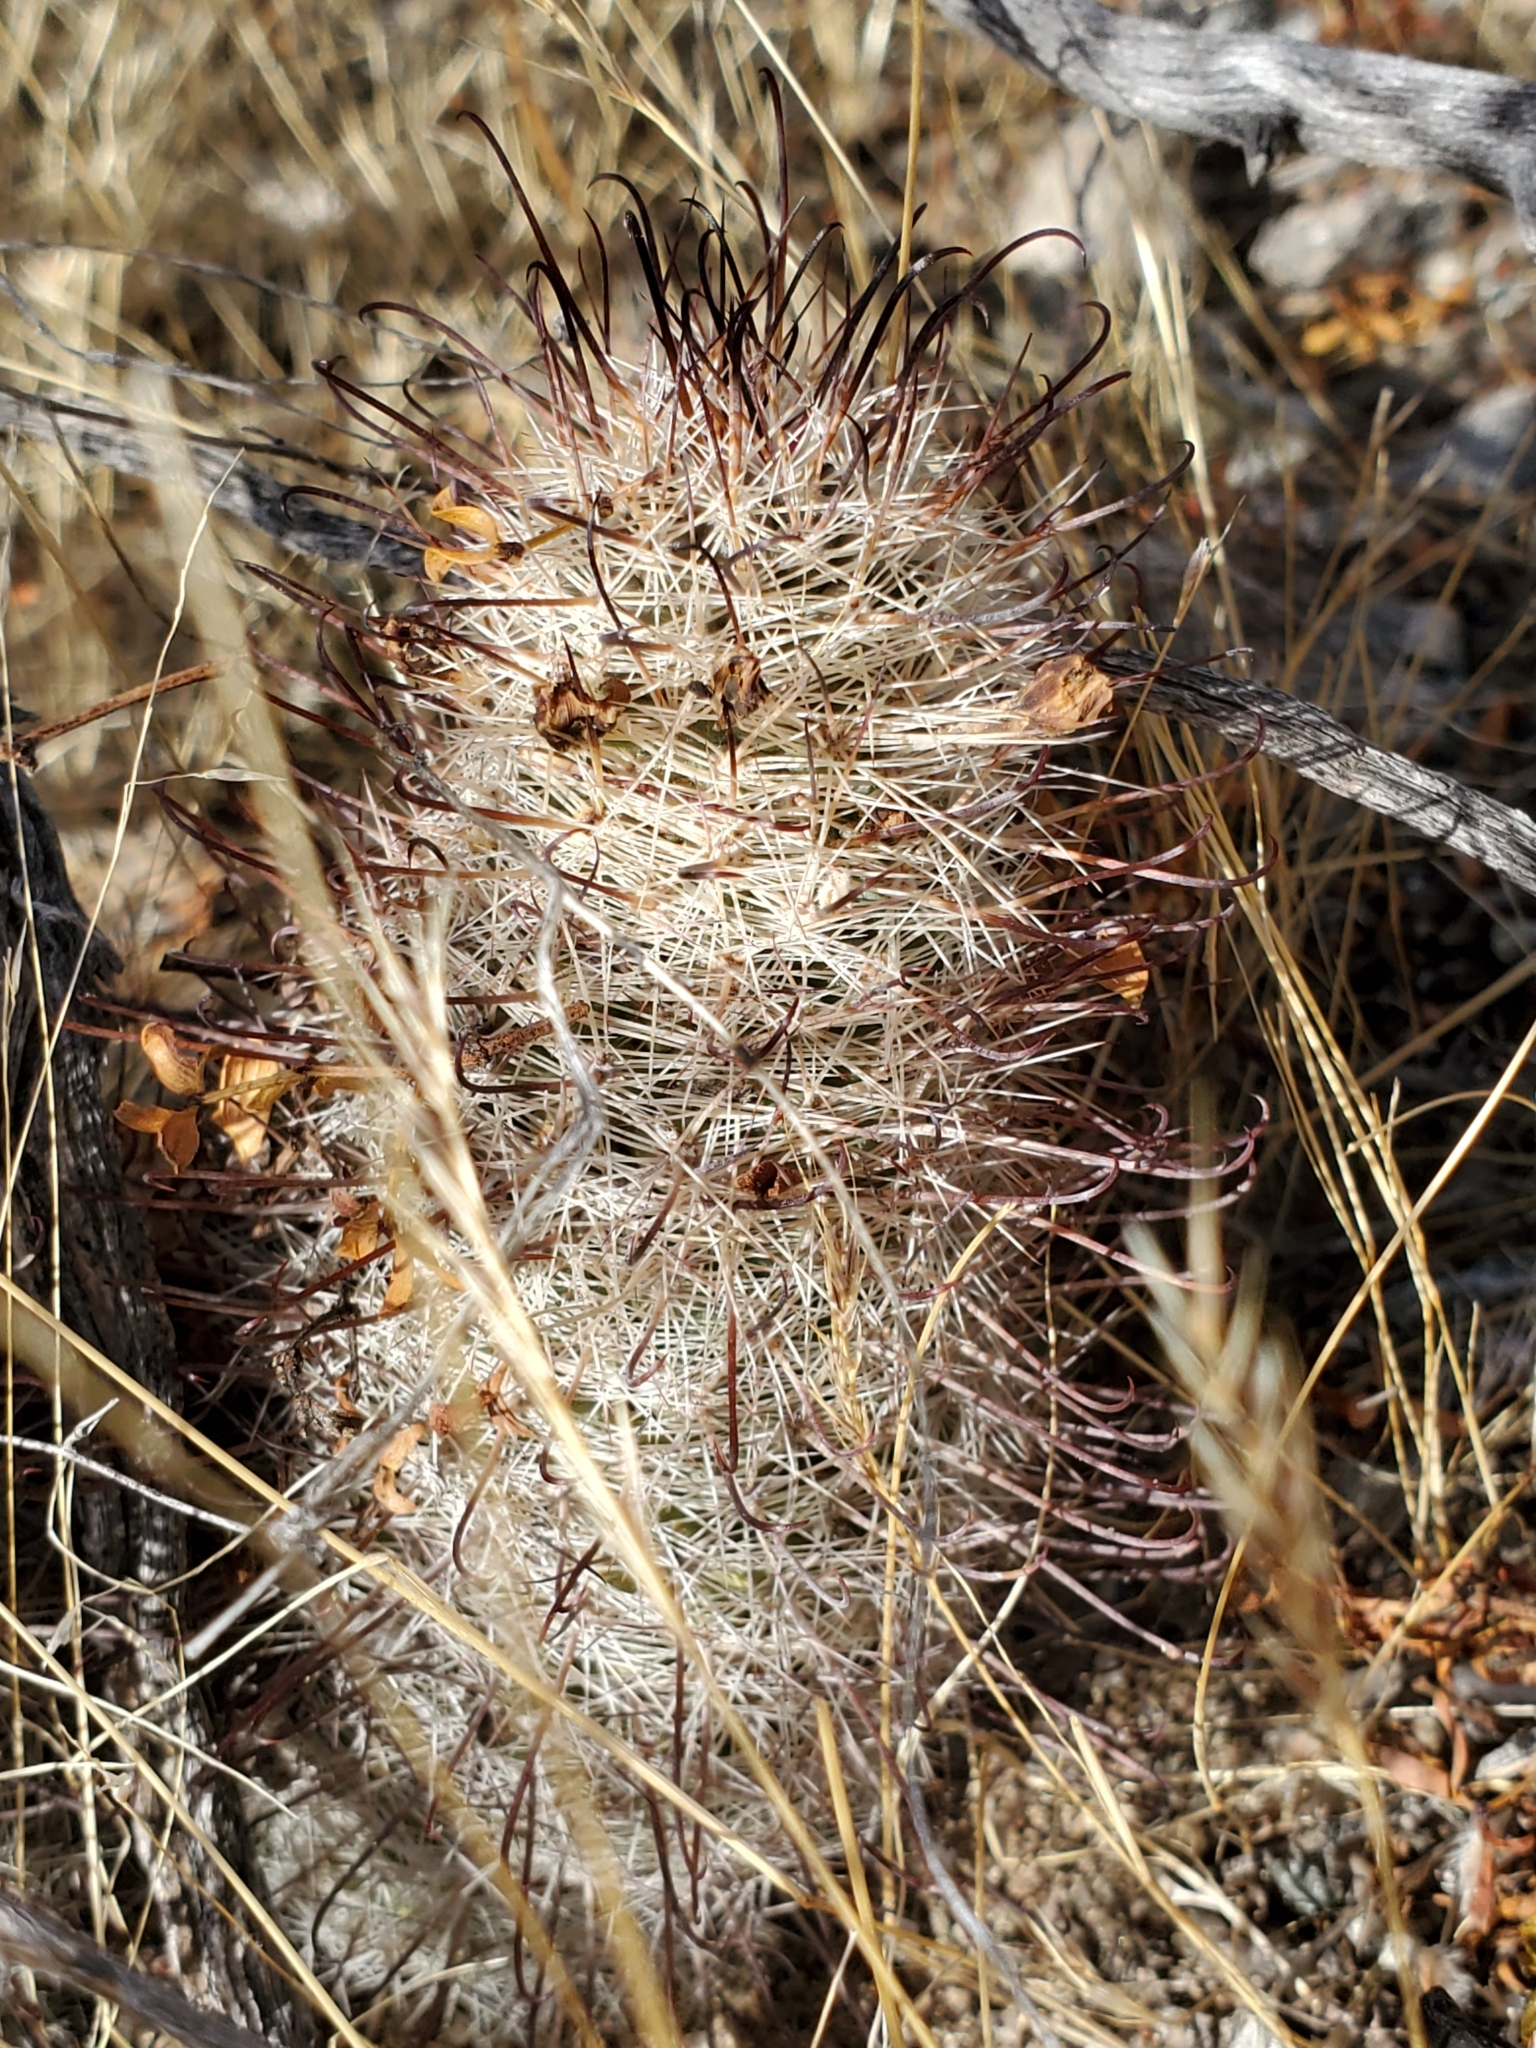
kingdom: Plantae
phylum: Tracheophyta
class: Magnoliopsida
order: Caryophyllales
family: Cactaceae
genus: Cochemiea
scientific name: Cochemiea grahamii
